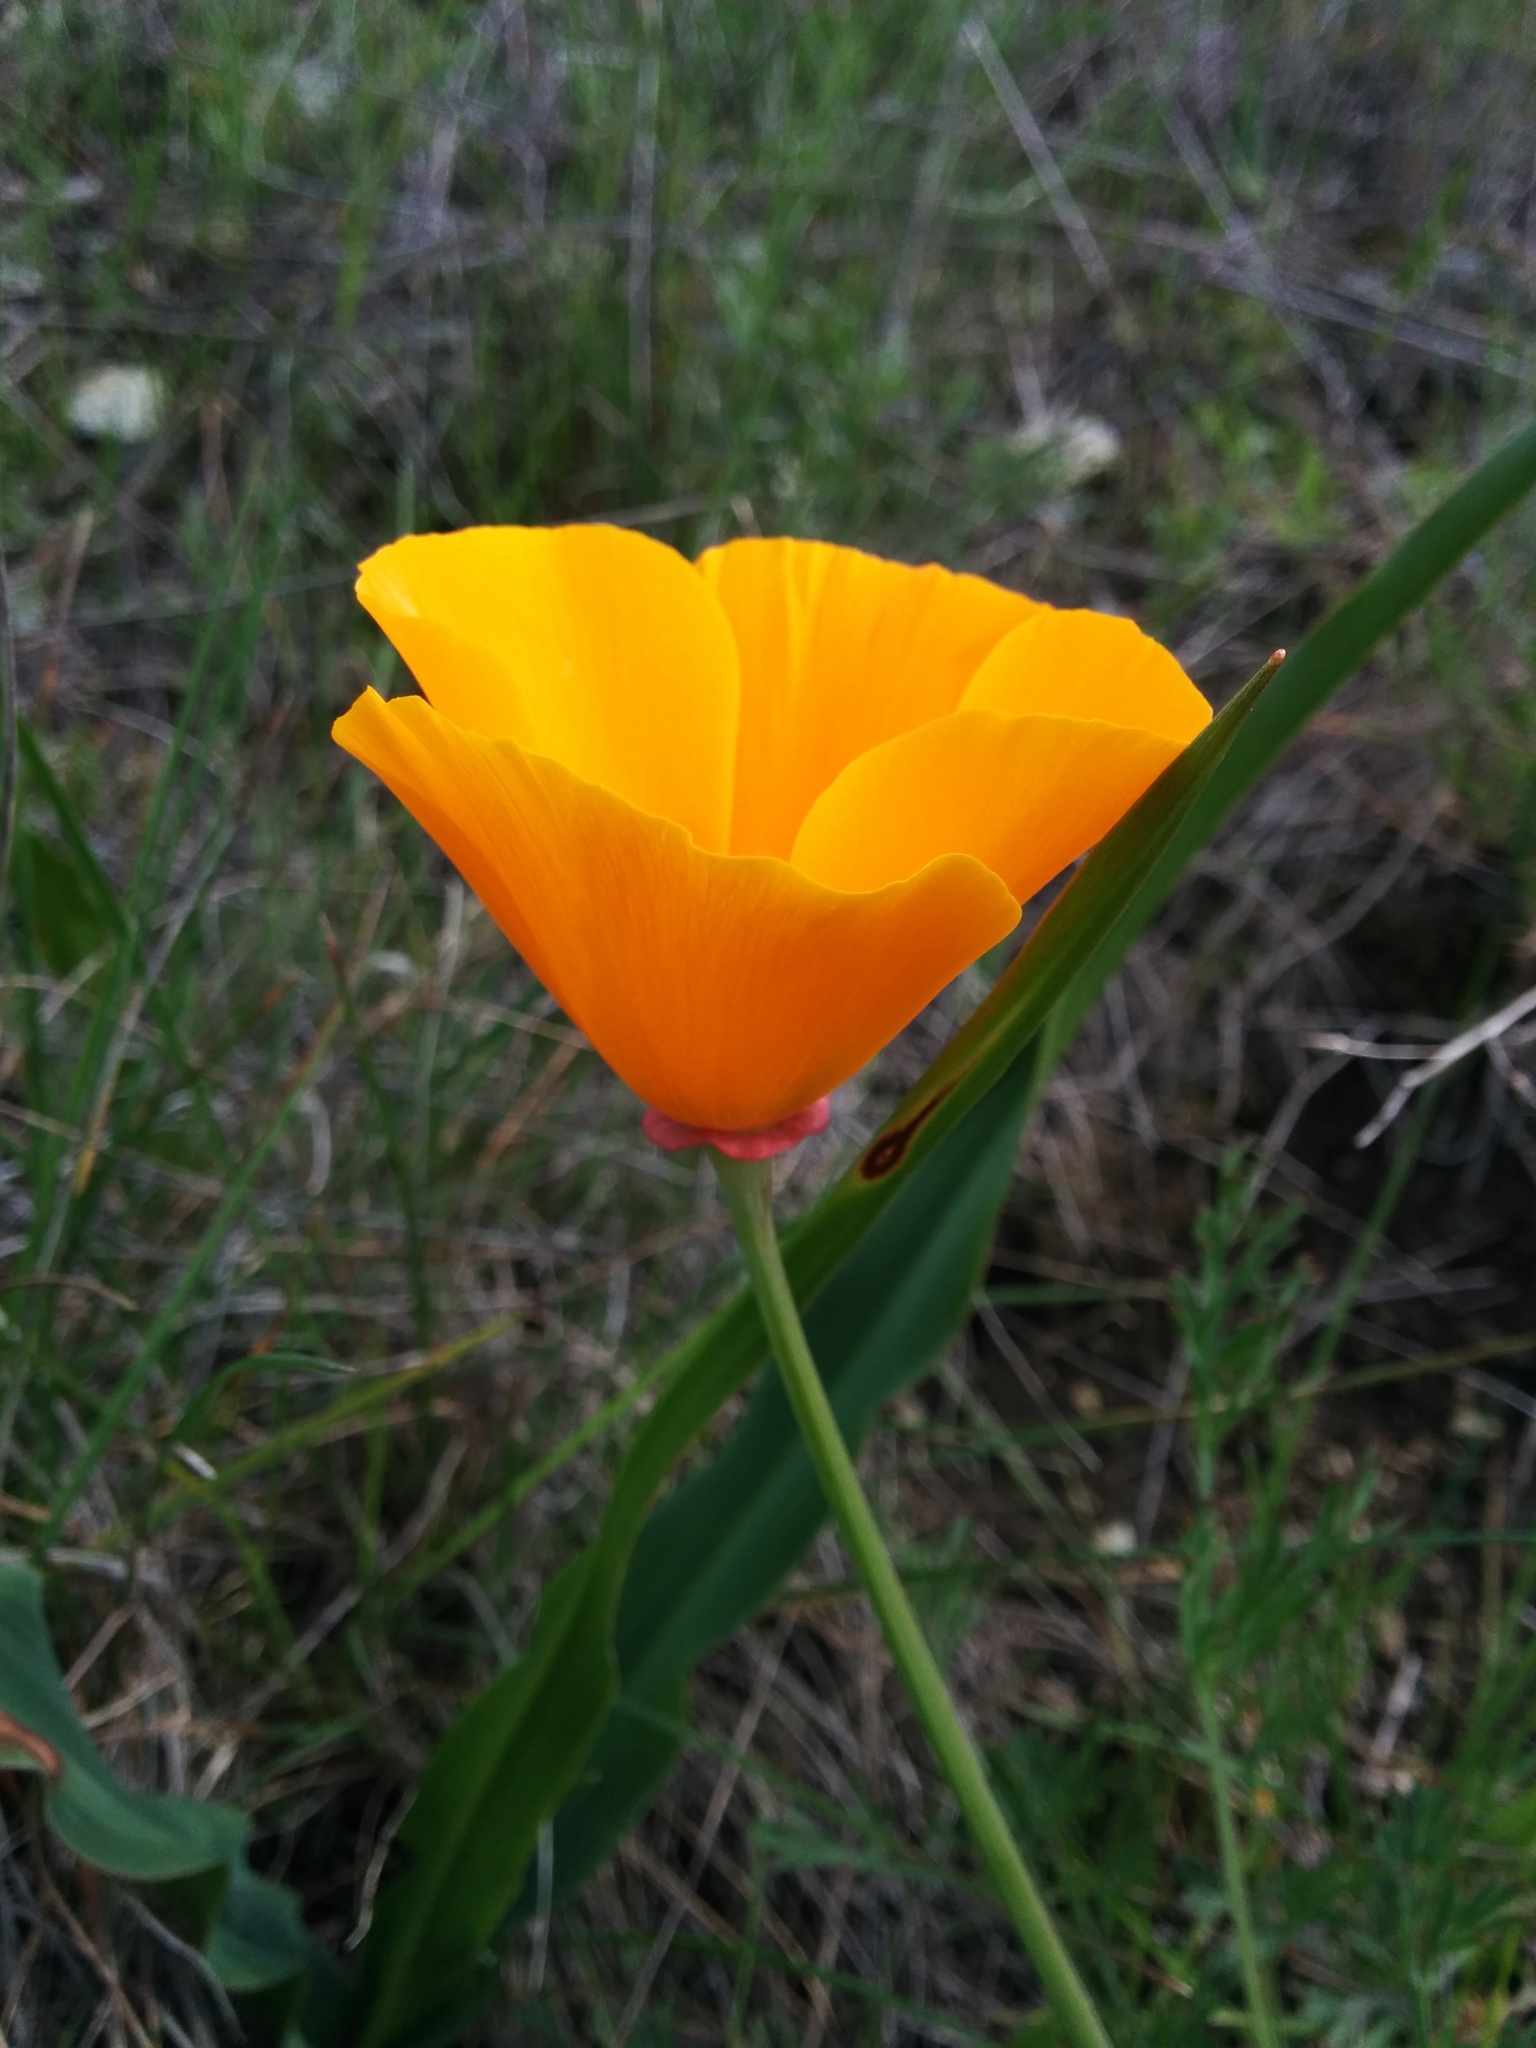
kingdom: Plantae
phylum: Tracheophyta
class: Magnoliopsida
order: Ranunculales
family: Papaveraceae
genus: Eschscholzia
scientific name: Eschscholzia californica
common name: California poppy
